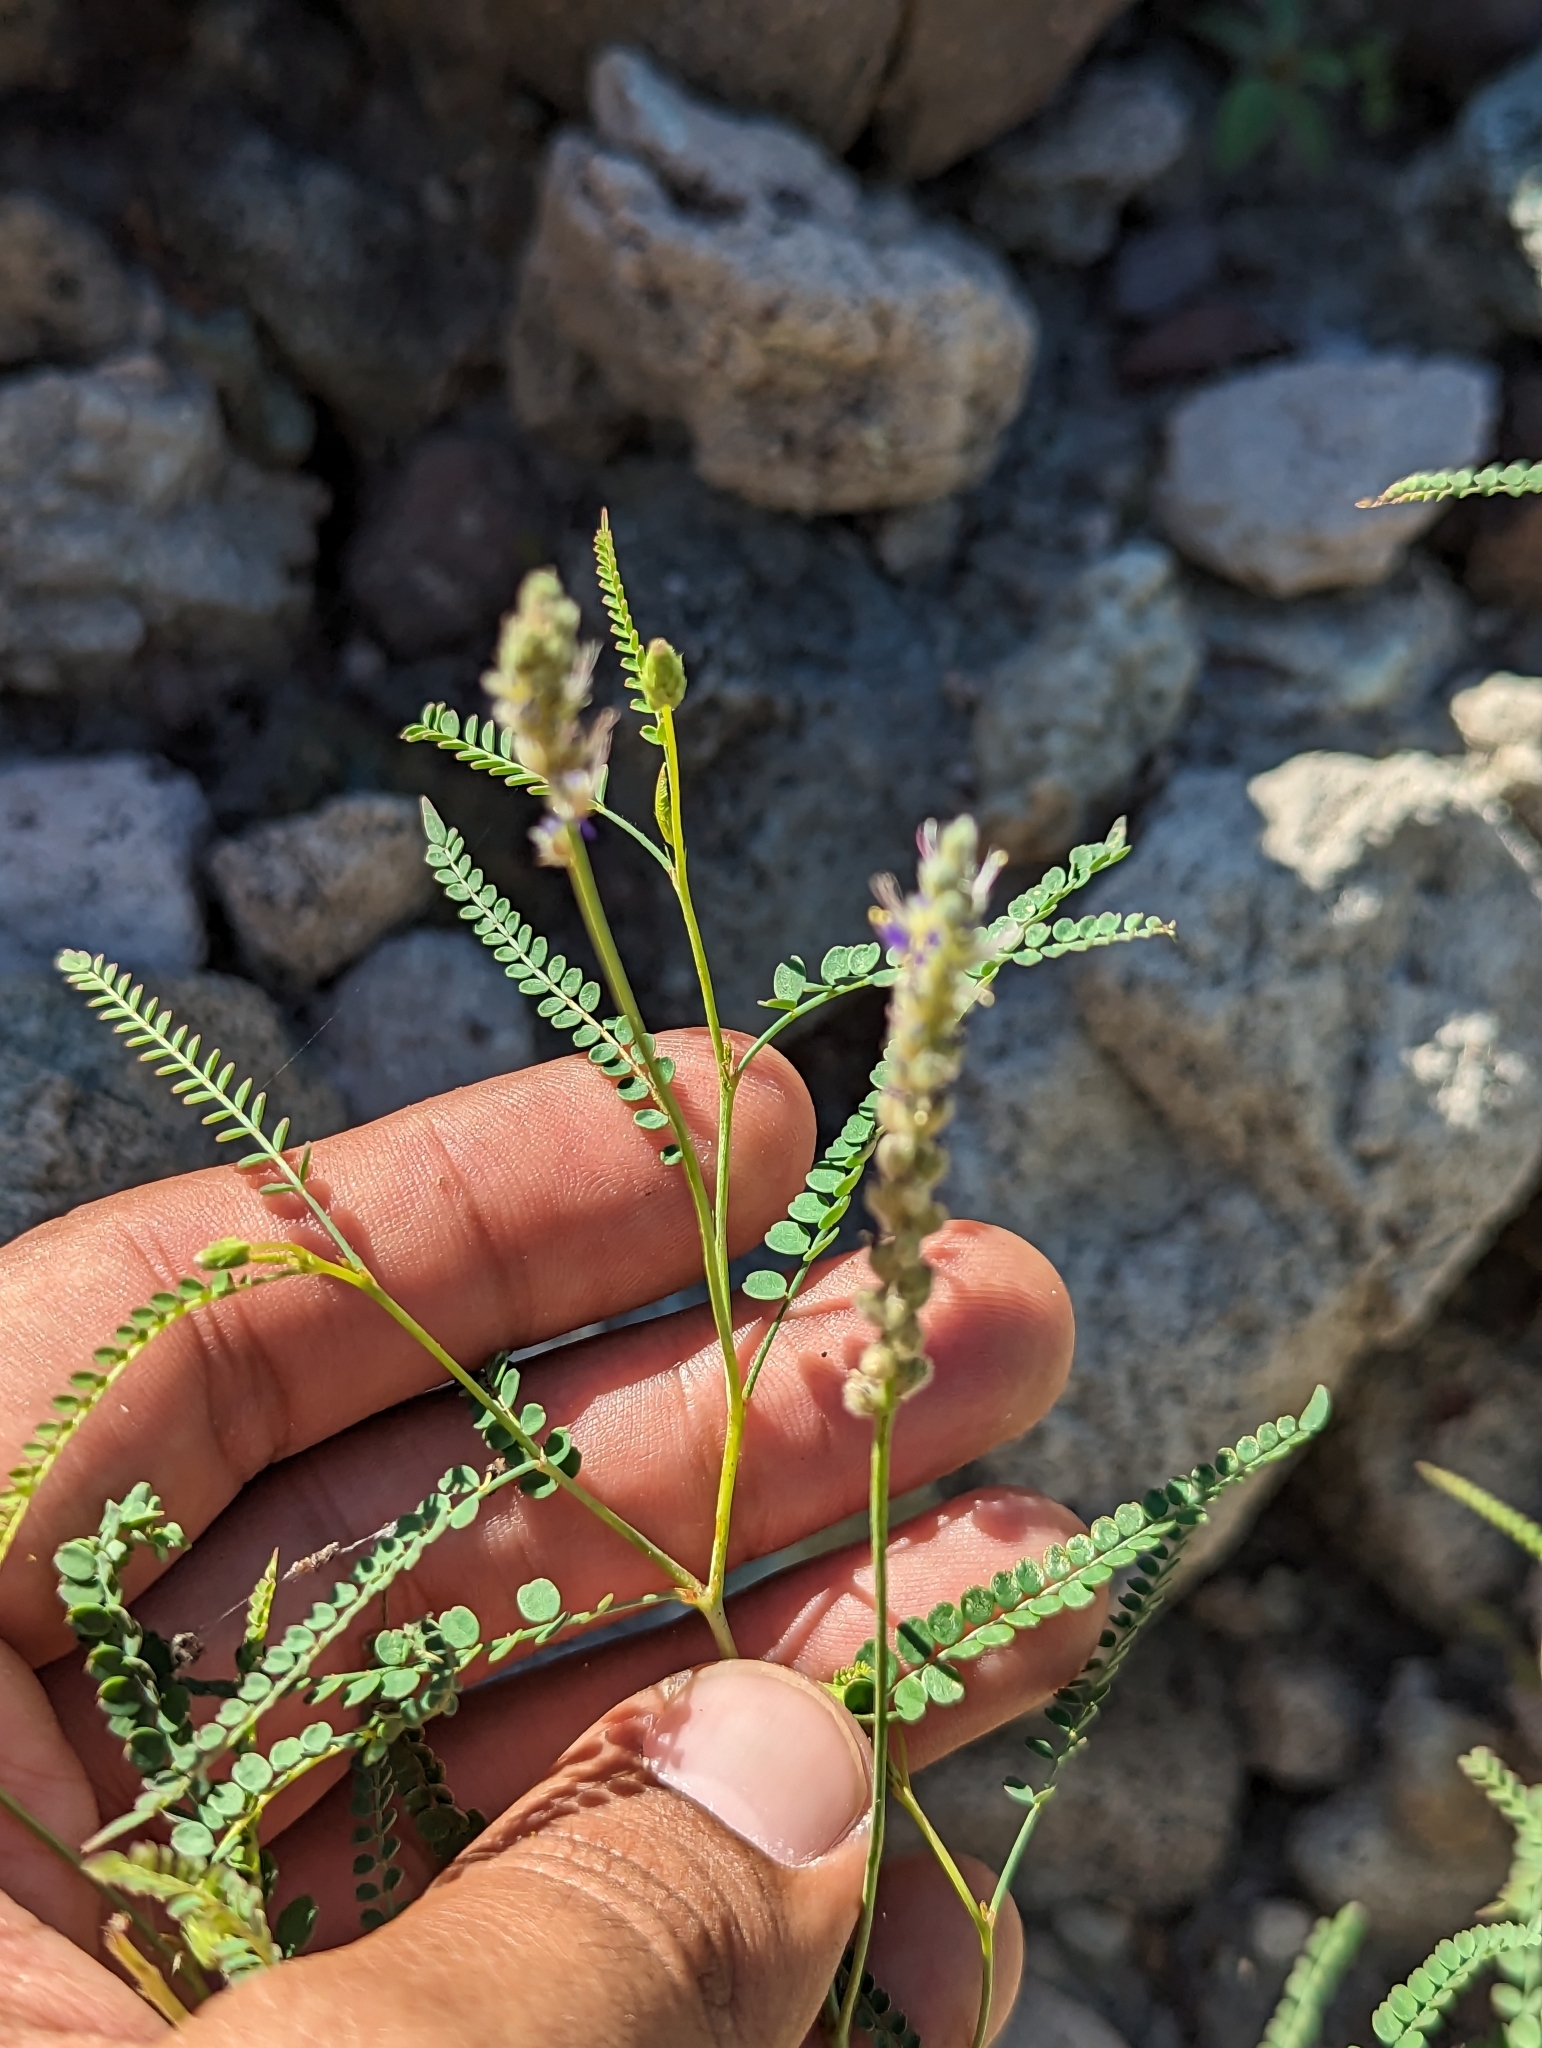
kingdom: Plantae
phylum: Tracheophyta
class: Magnoliopsida
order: Fabales
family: Fabaceae
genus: Marina
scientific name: Marina vetula
